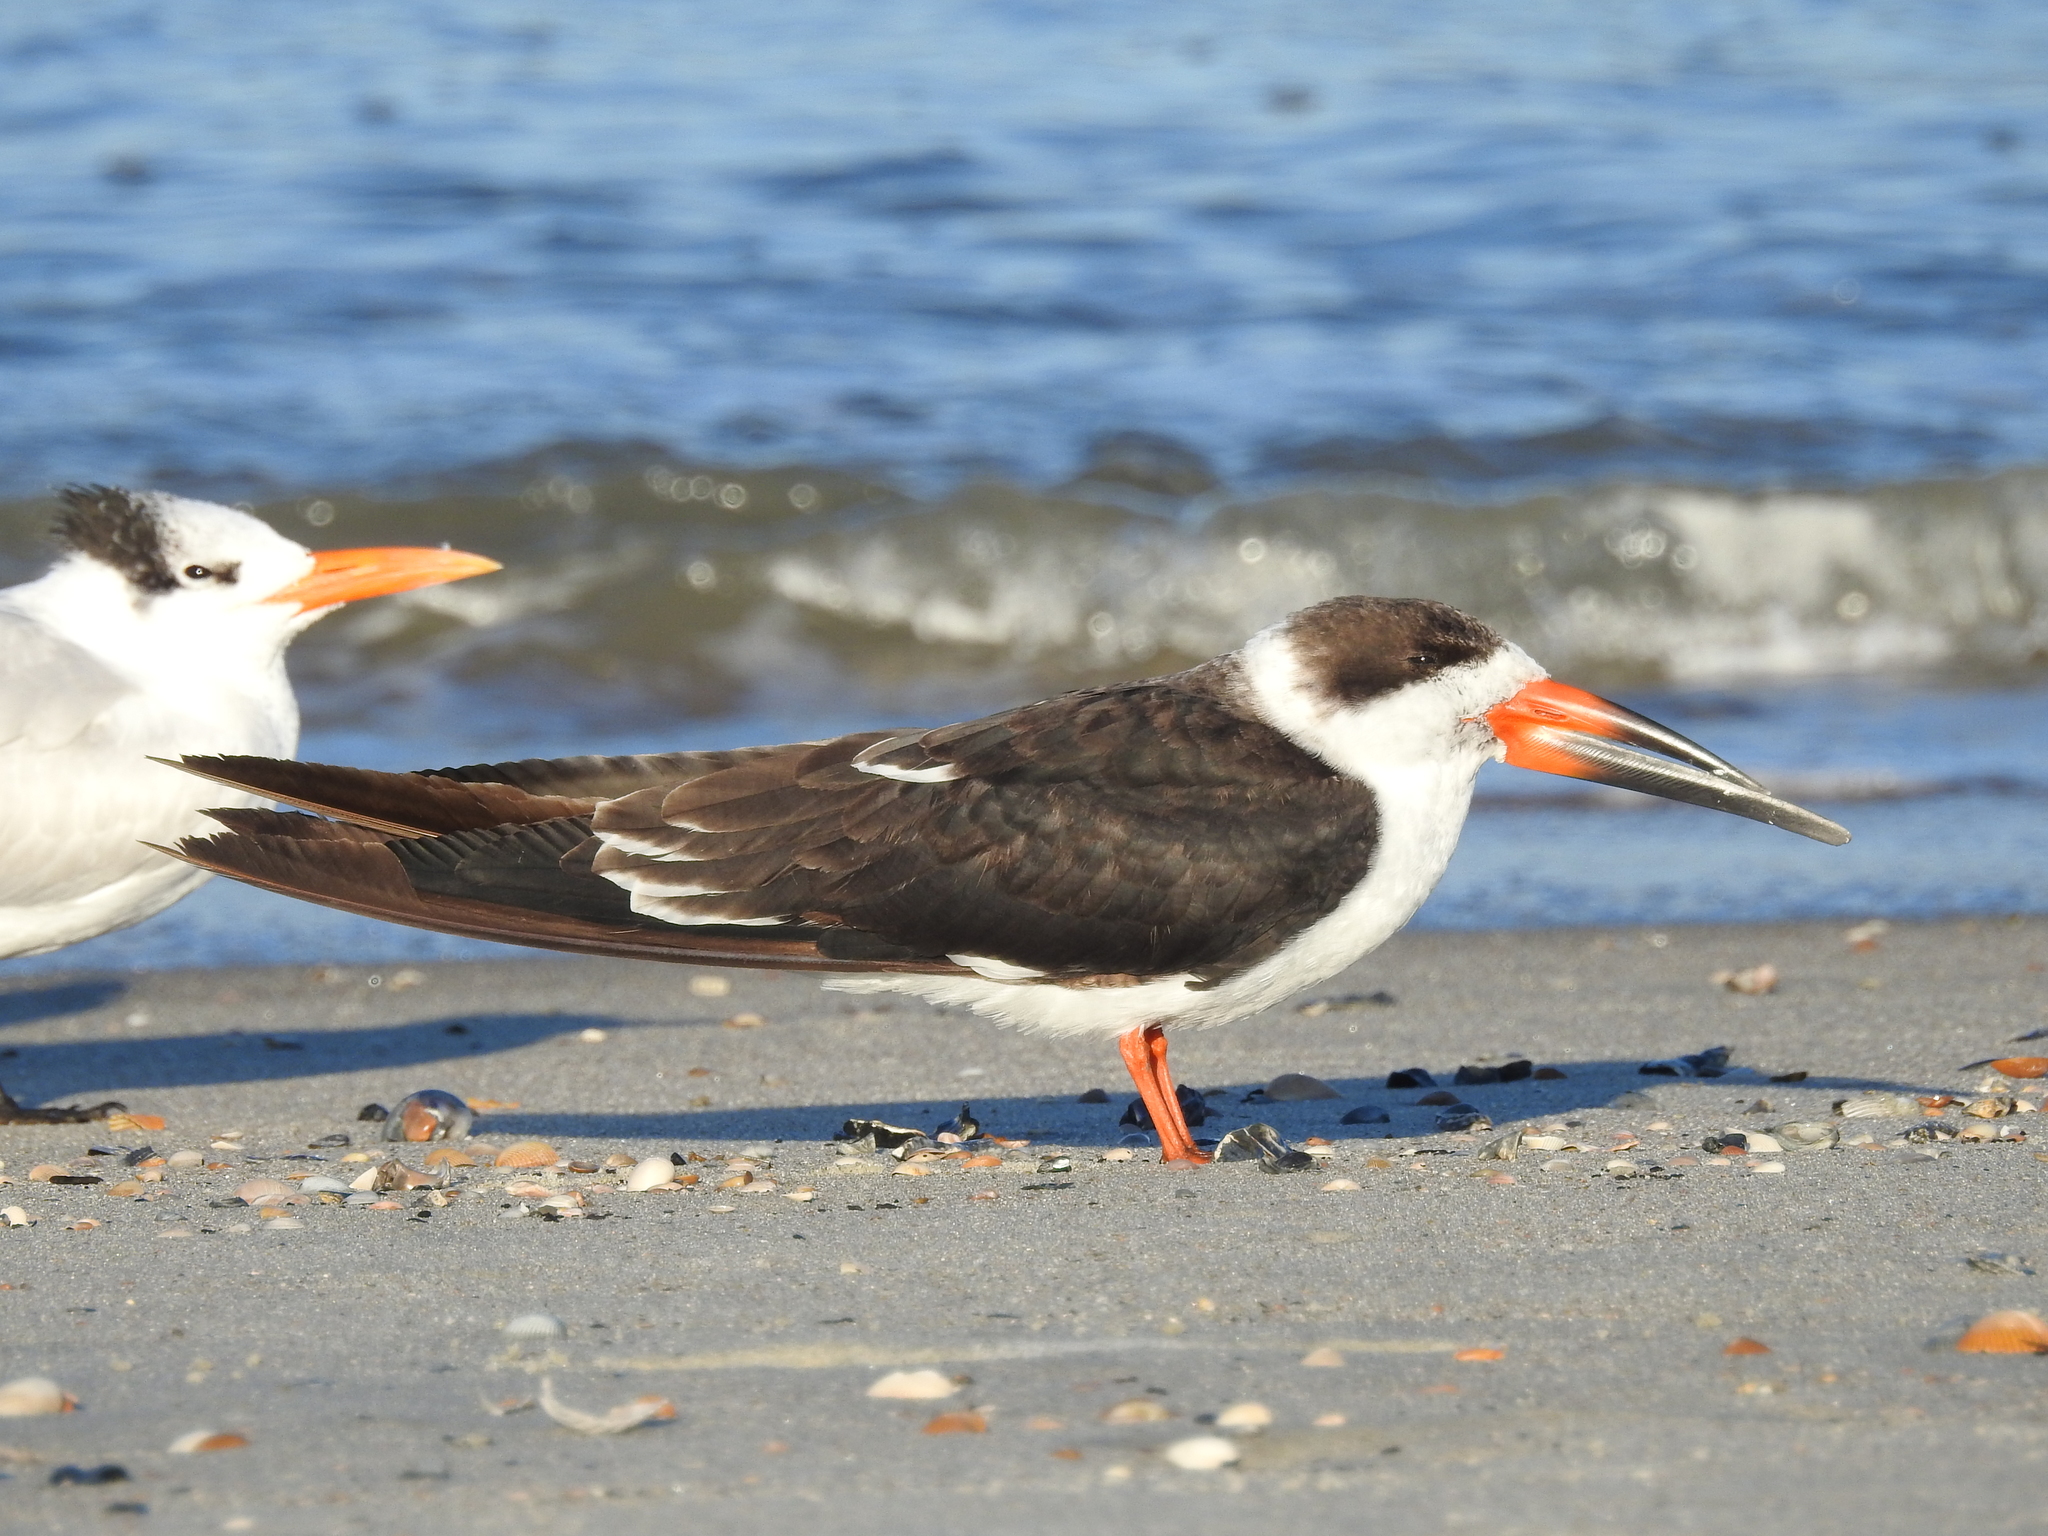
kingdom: Animalia
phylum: Chordata
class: Aves
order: Charadriiformes
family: Laridae
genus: Rynchops
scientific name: Rynchops niger
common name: Black skimmer
